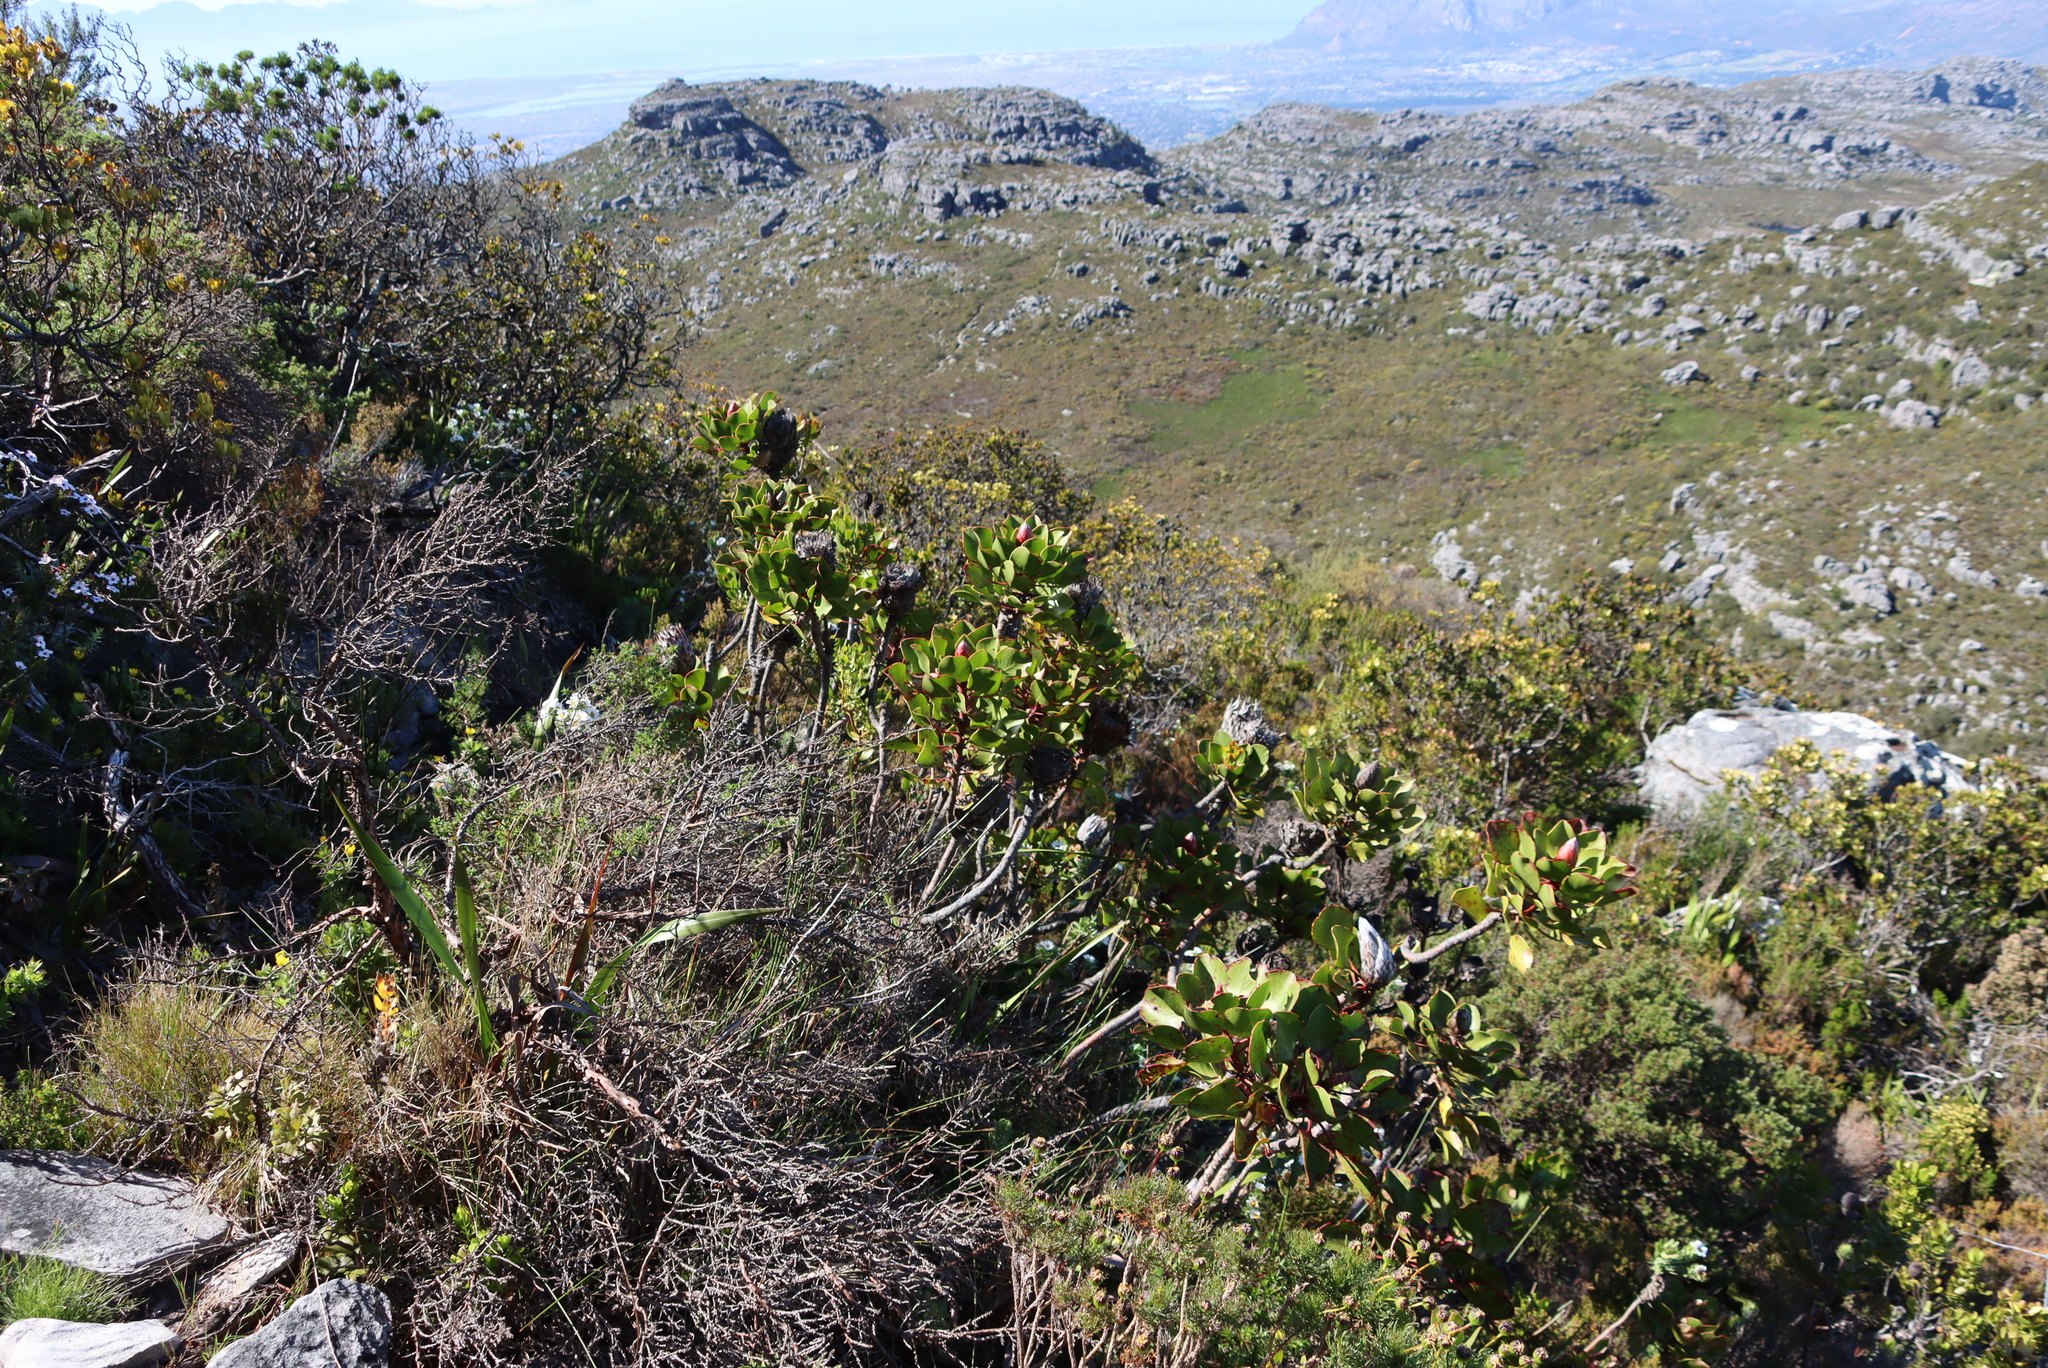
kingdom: Plantae
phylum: Tracheophyta
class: Magnoliopsida
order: Proteales
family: Proteaceae
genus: Protea
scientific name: Protea cynaroides
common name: King protea
